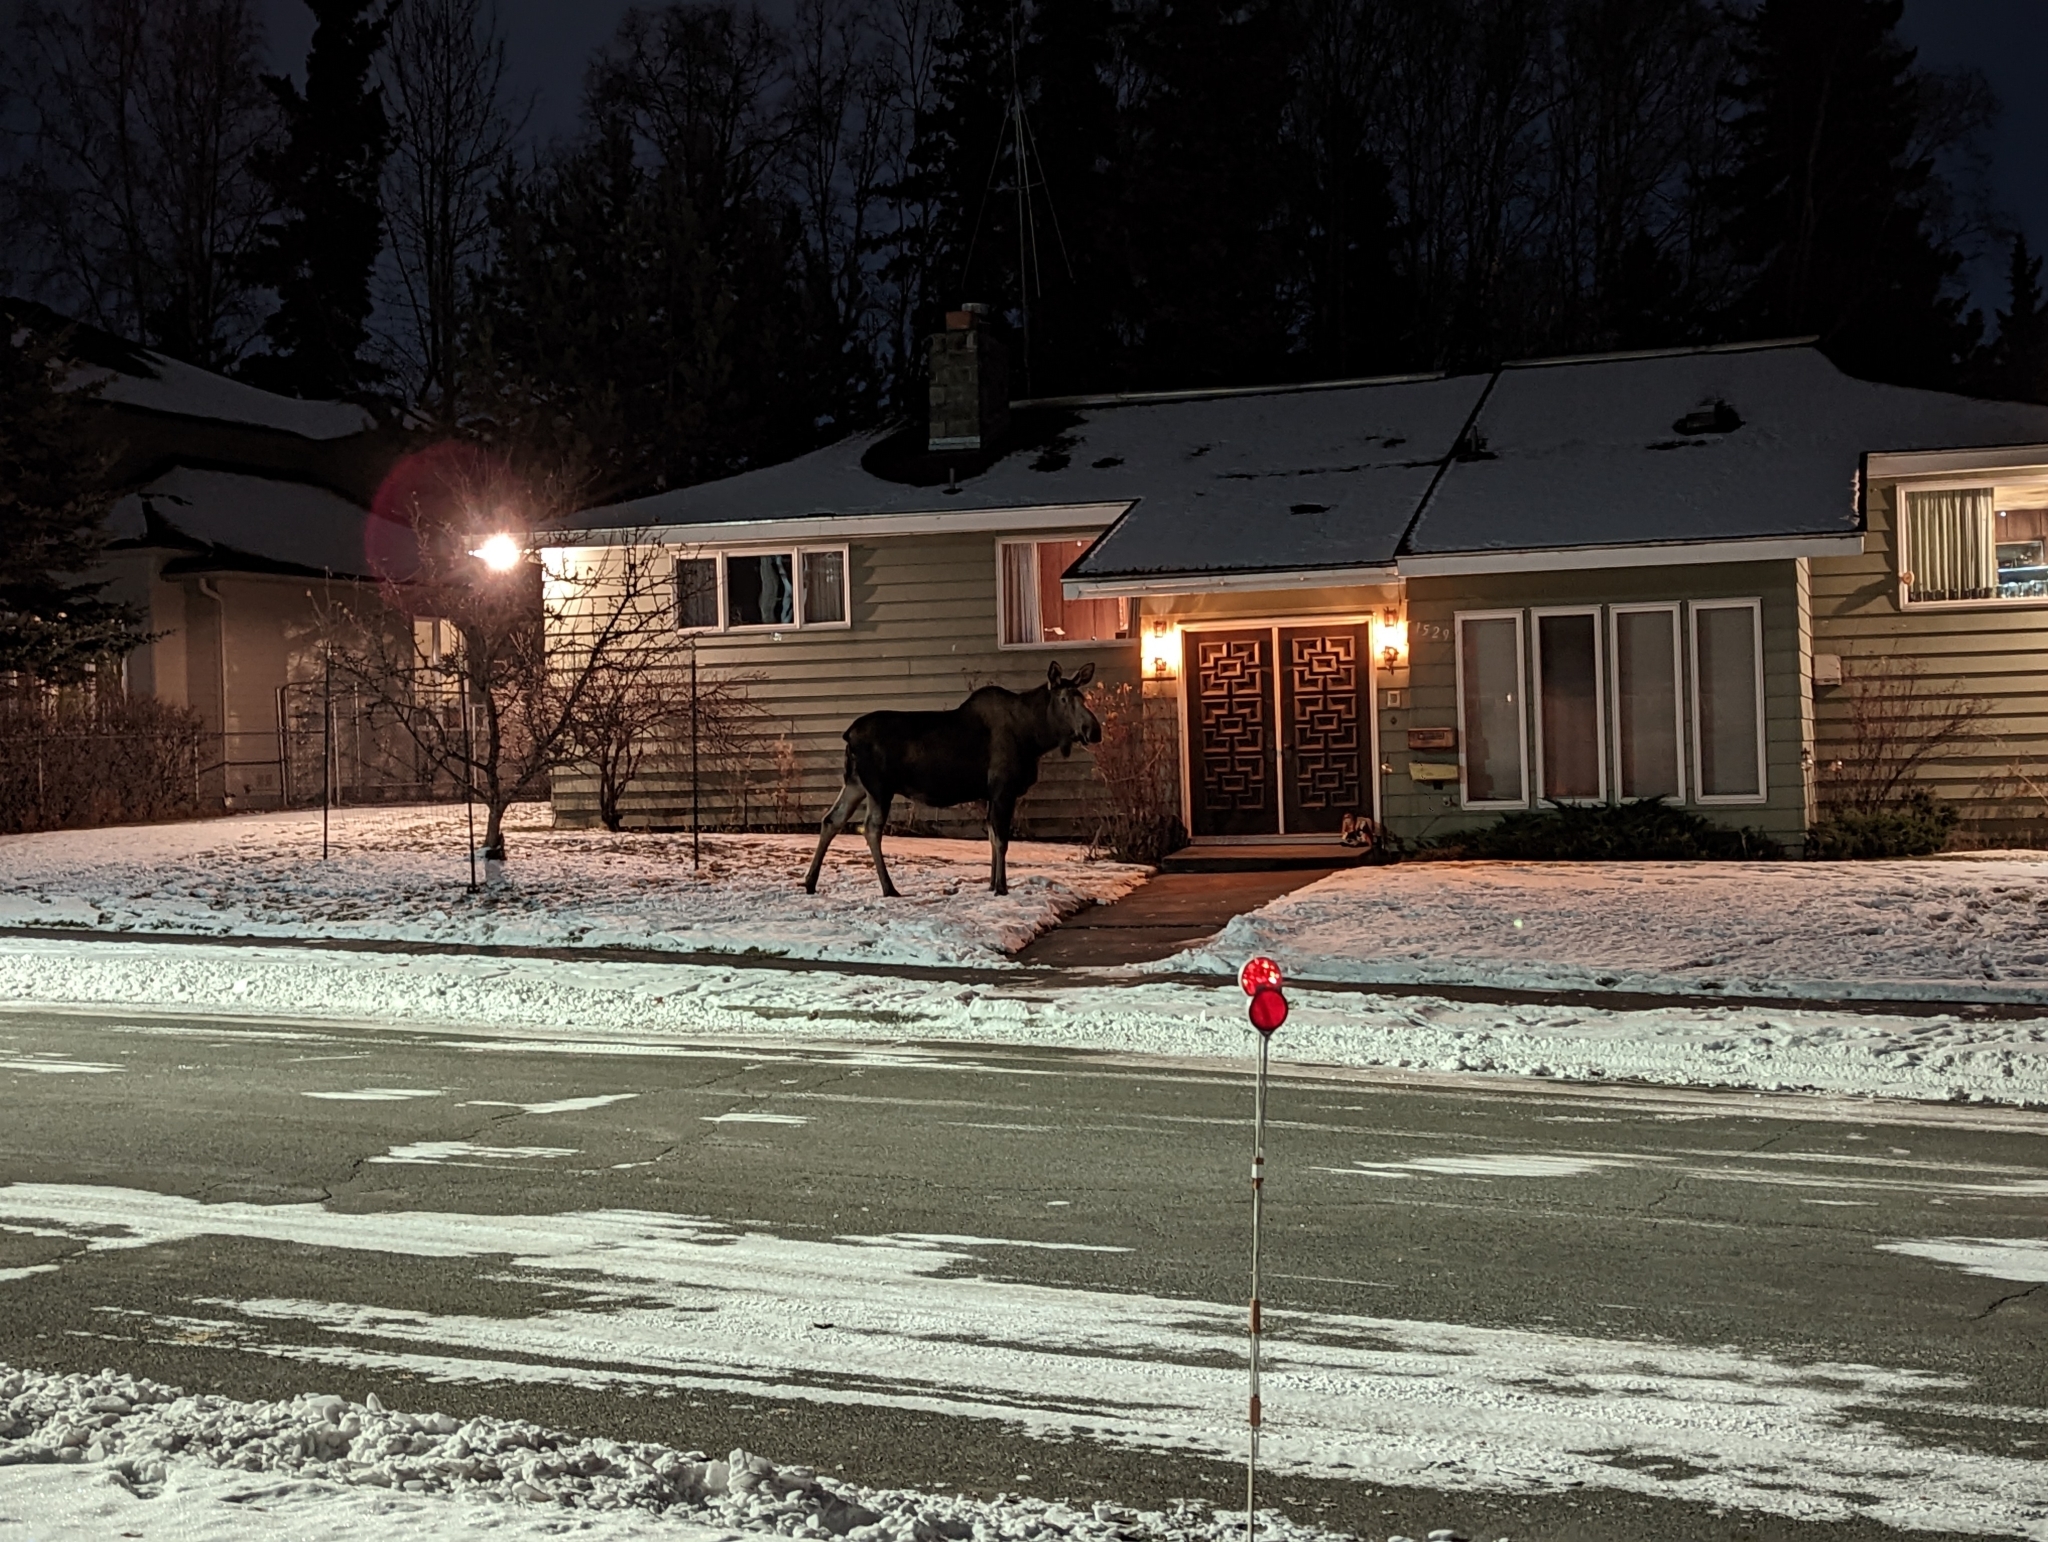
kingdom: Animalia
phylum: Chordata
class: Mammalia
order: Artiodactyla
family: Cervidae
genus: Alces
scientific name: Alces alces
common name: Moose
